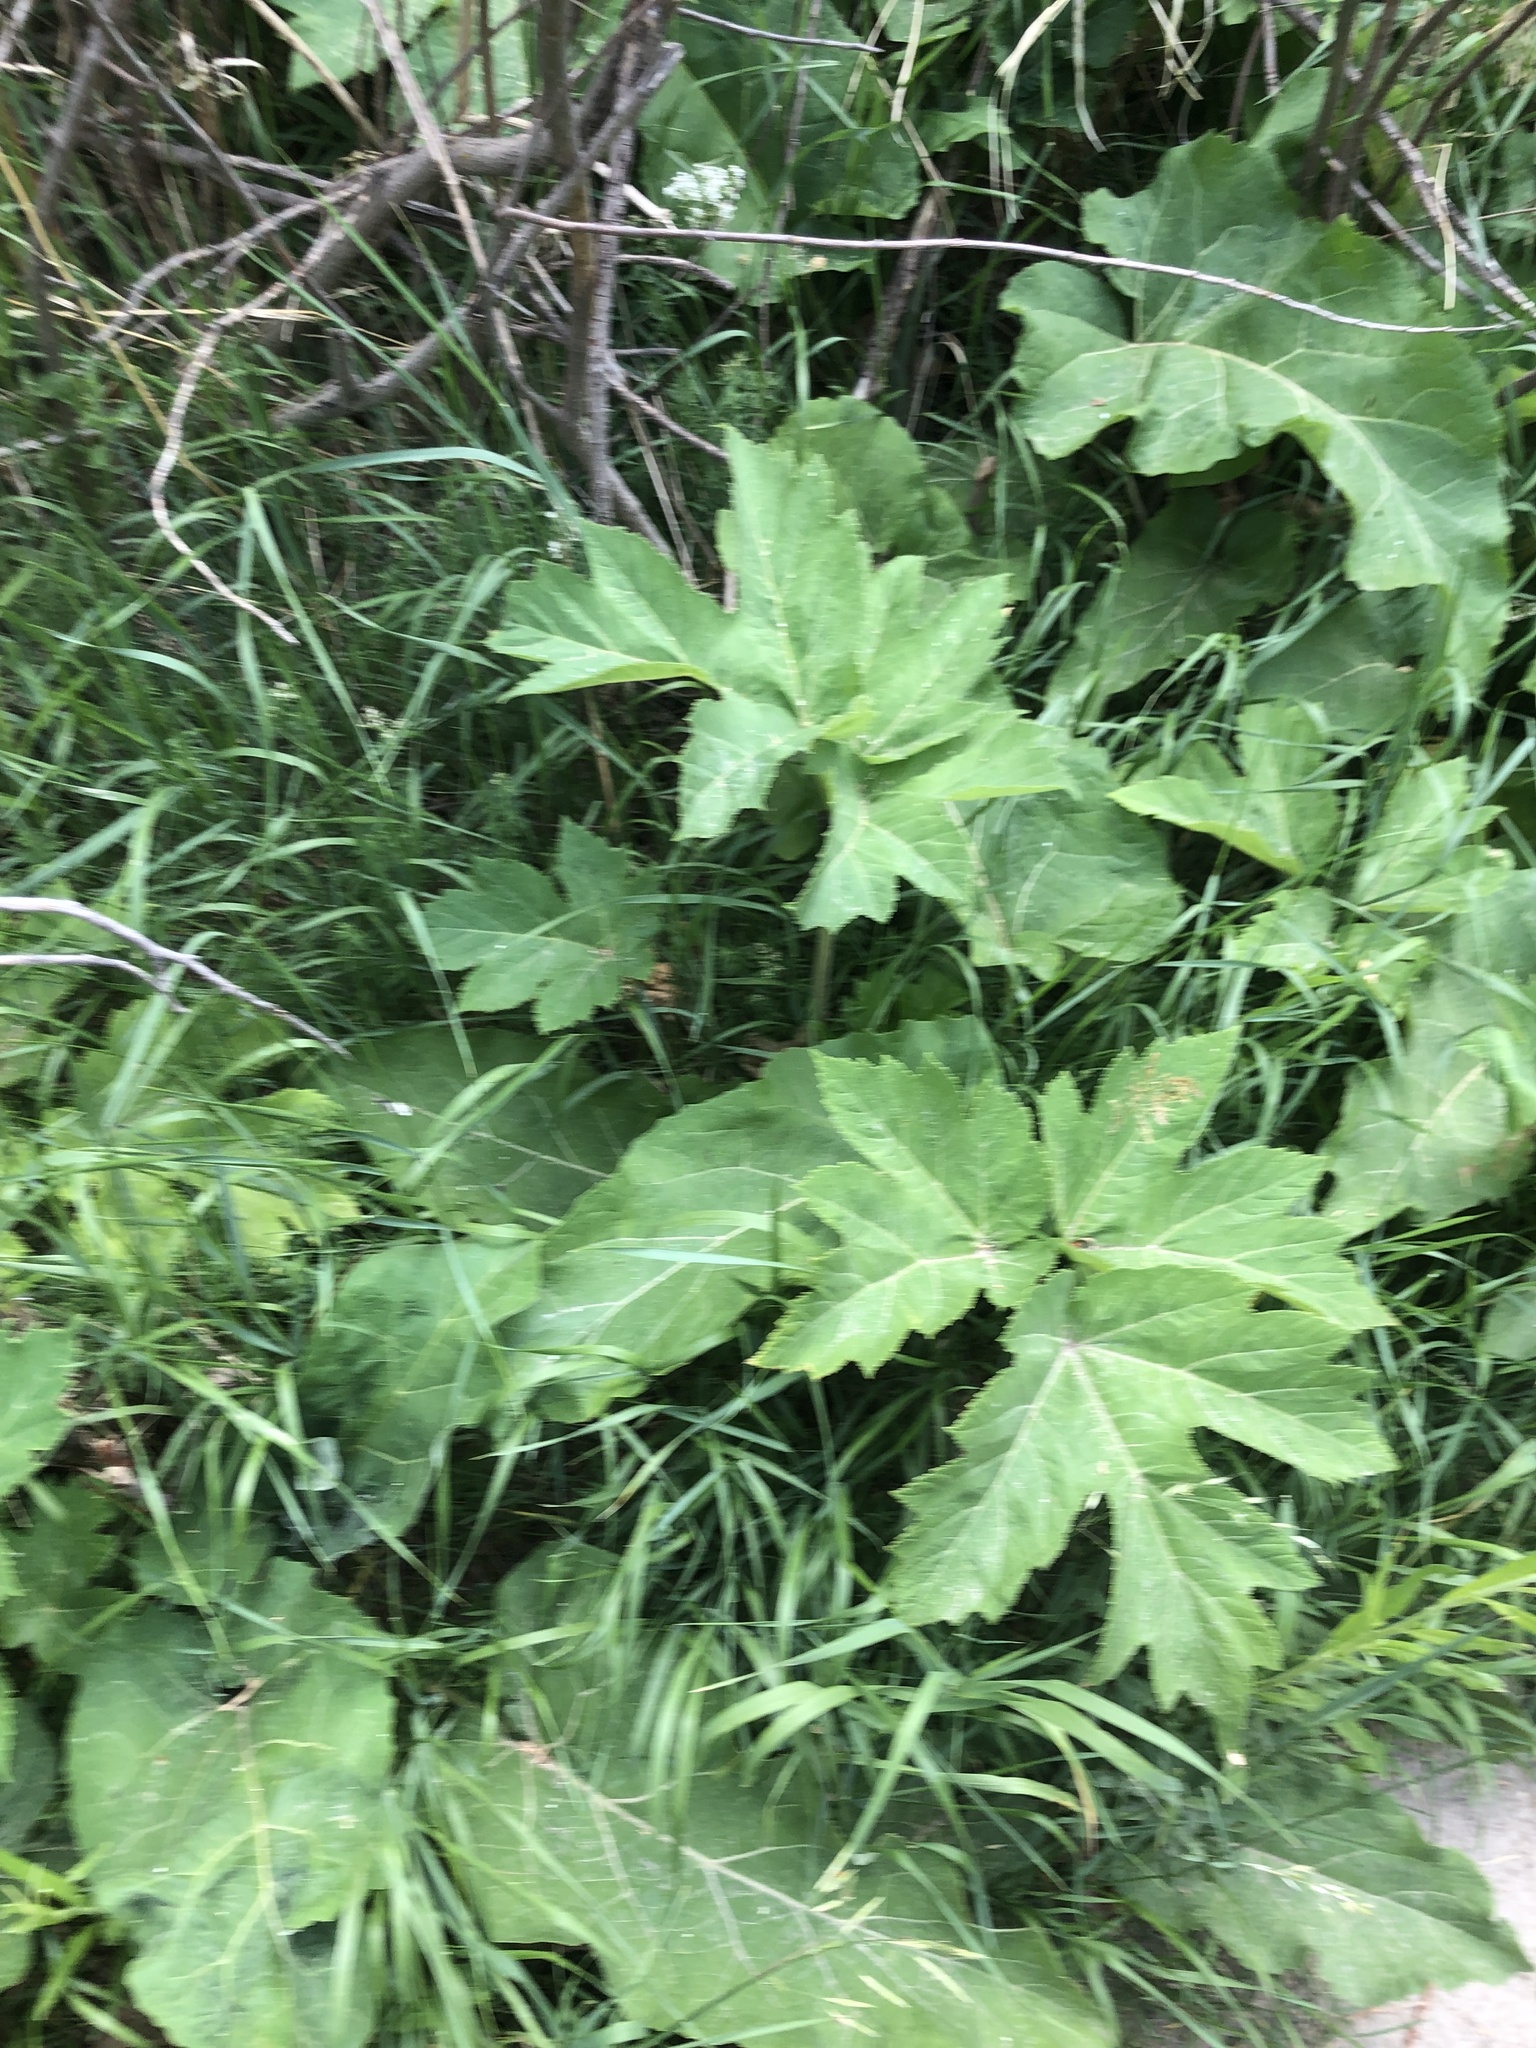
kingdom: Plantae
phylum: Tracheophyta
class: Magnoliopsida
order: Apiales
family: Apiaceae
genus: Heracleum
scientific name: Heracleum maximum
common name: American cow parsnip
